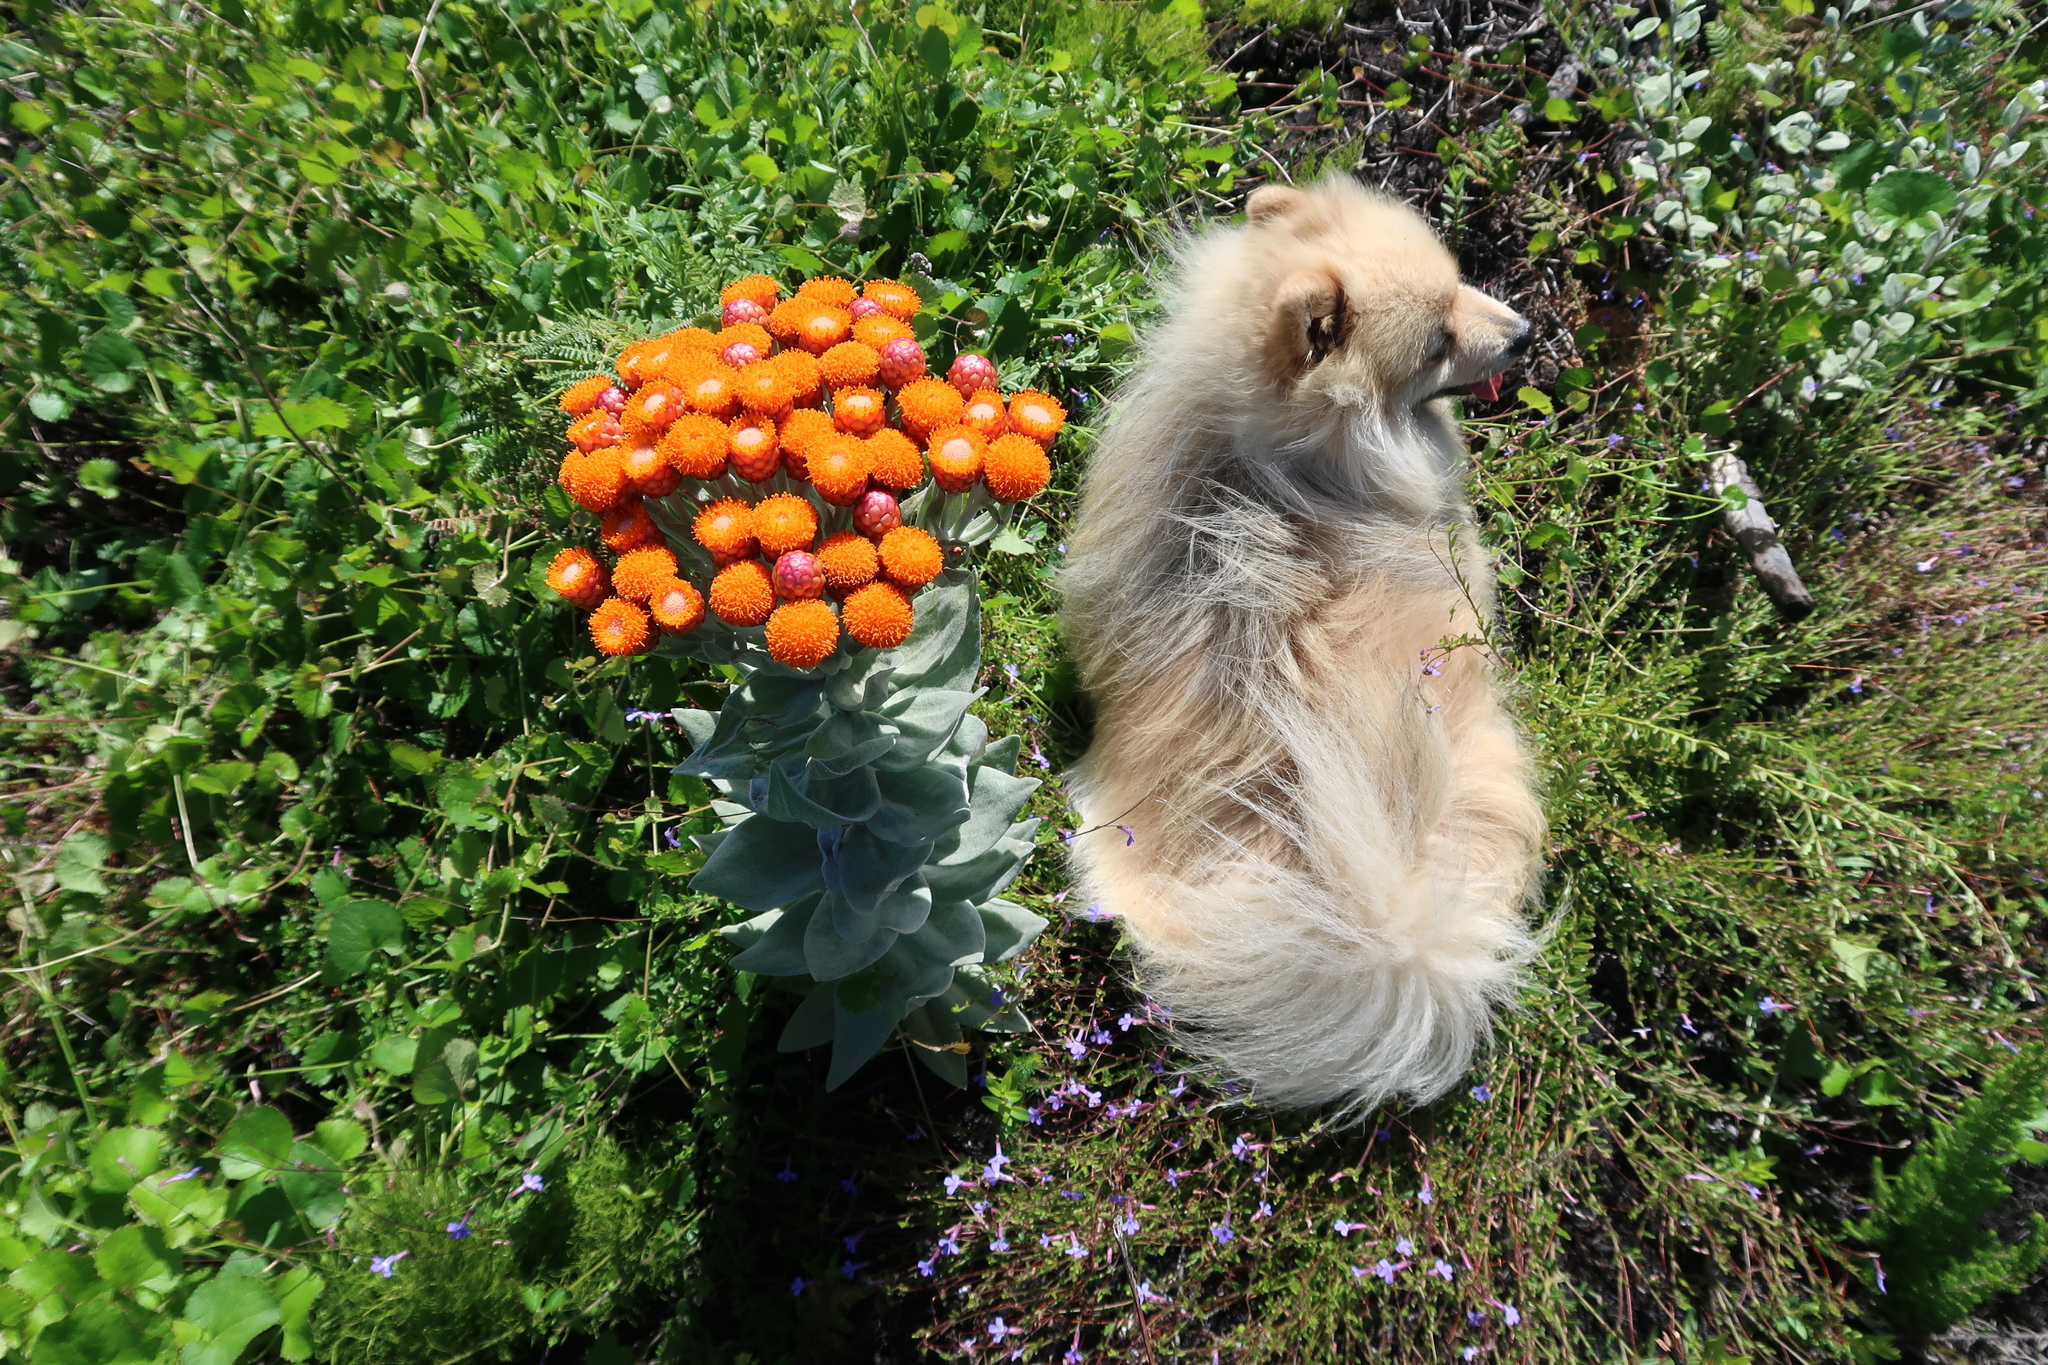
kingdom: Plantae
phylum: Tracheophyta
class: Magnoliopsida
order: Asterales
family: Asteraceae
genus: Syncarpha
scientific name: Syncarpha eximia
